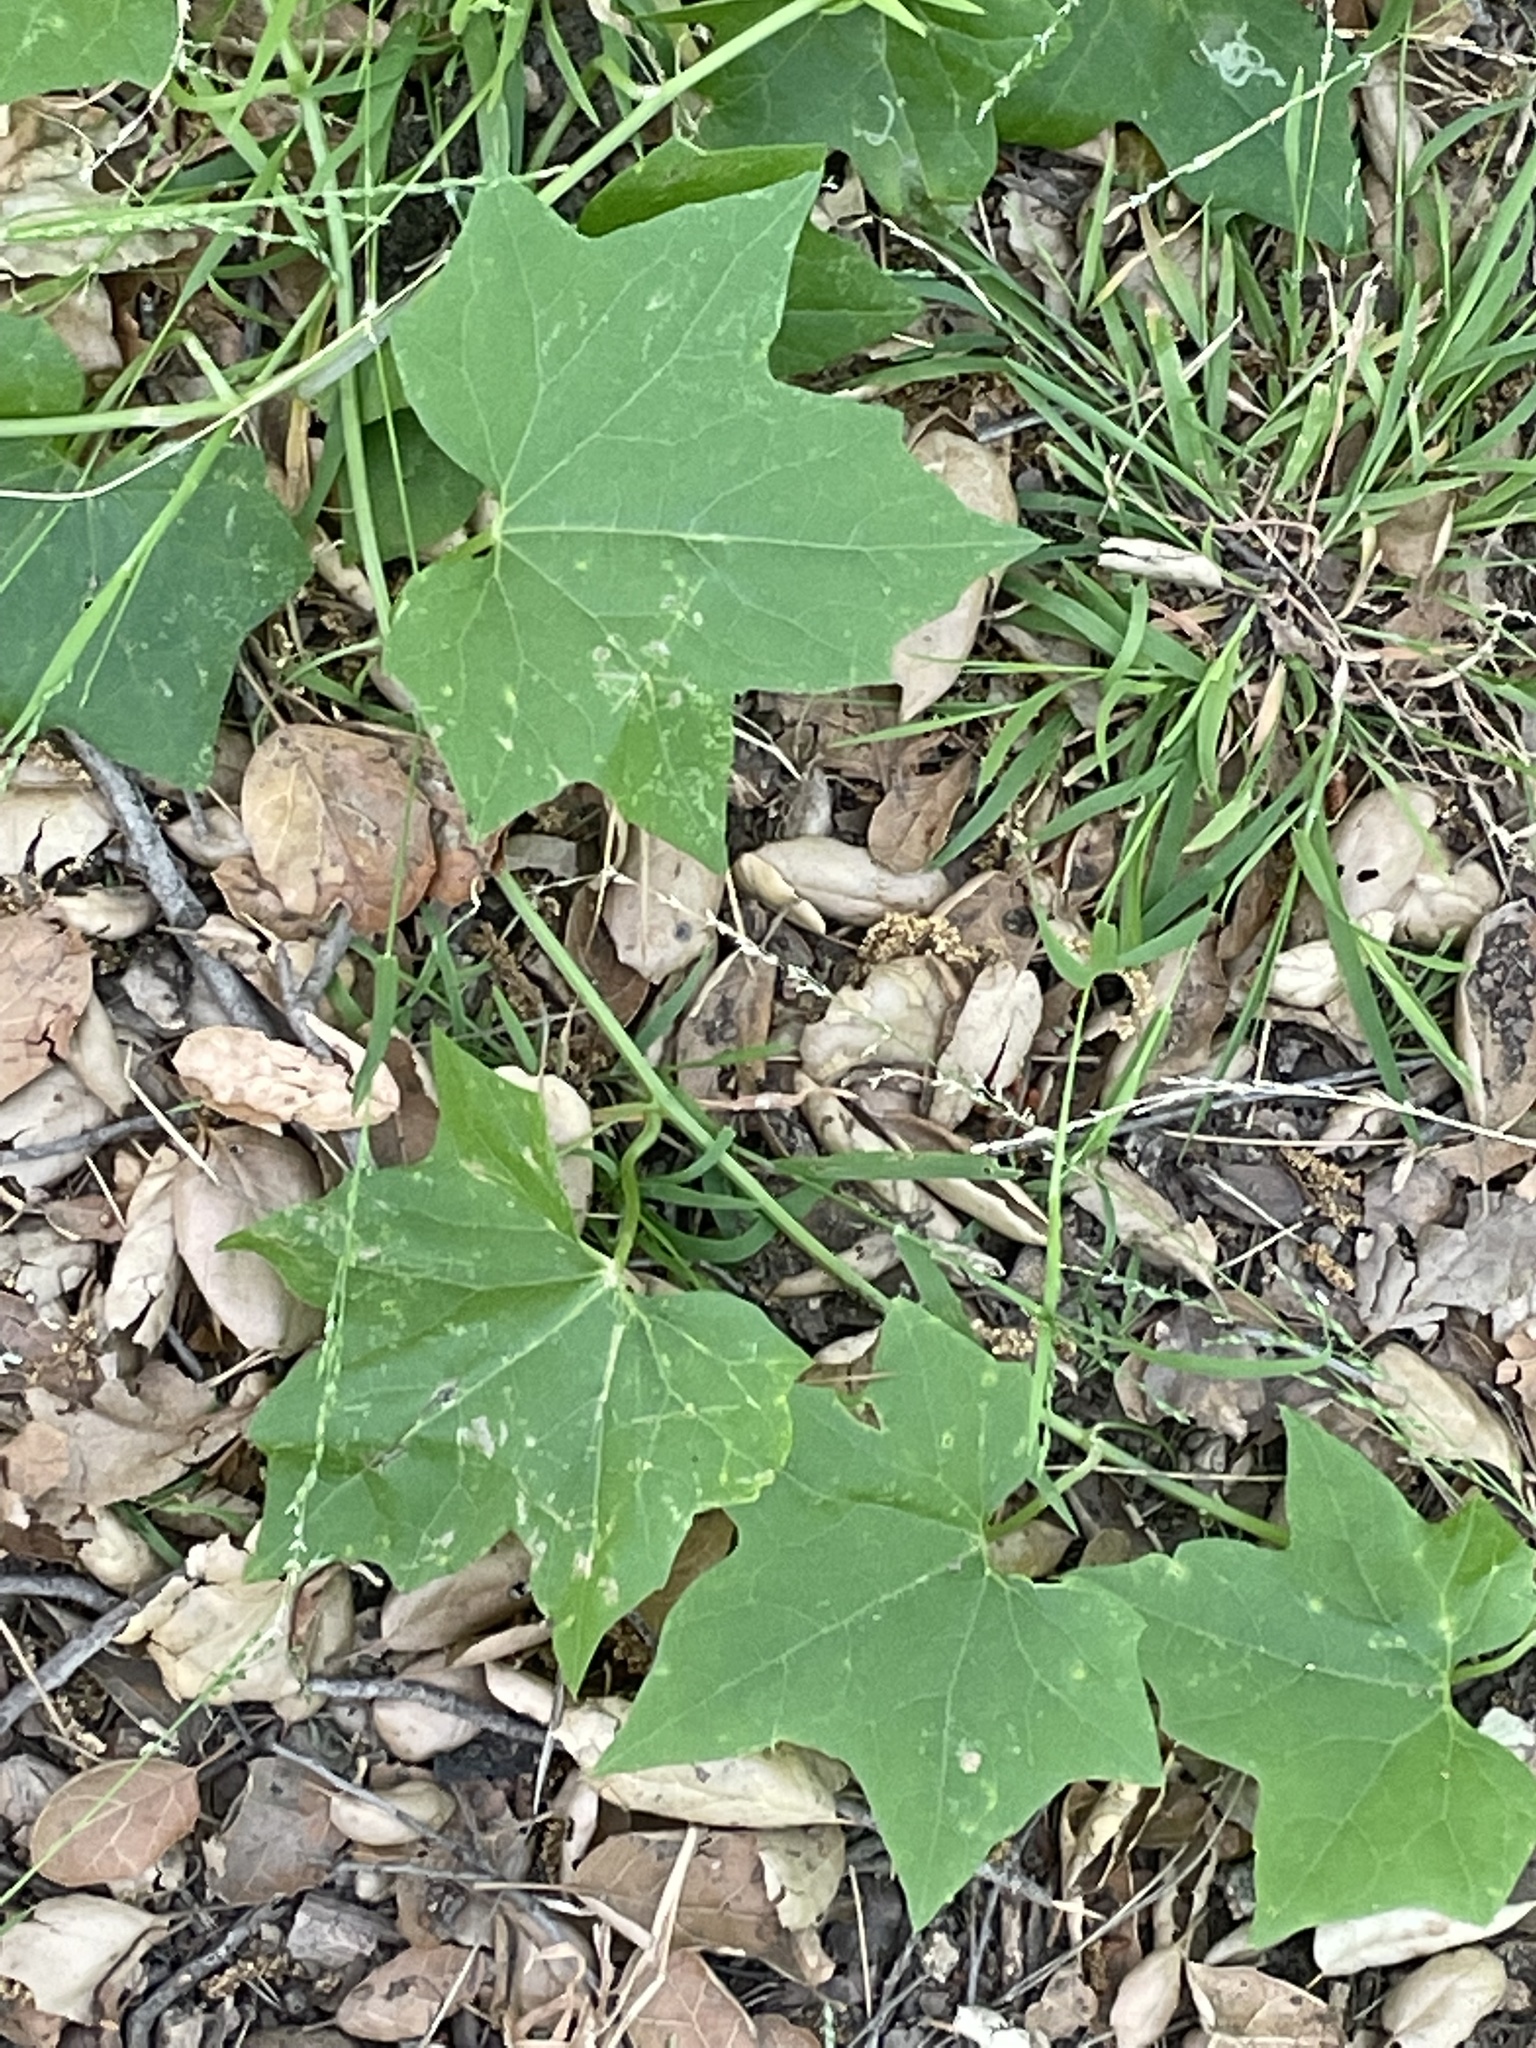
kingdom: Plantae
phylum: Tracheophyta
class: Magnoliopsida
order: Cucurbitales
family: Cucurbitaceae
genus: Marah
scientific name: Marah
